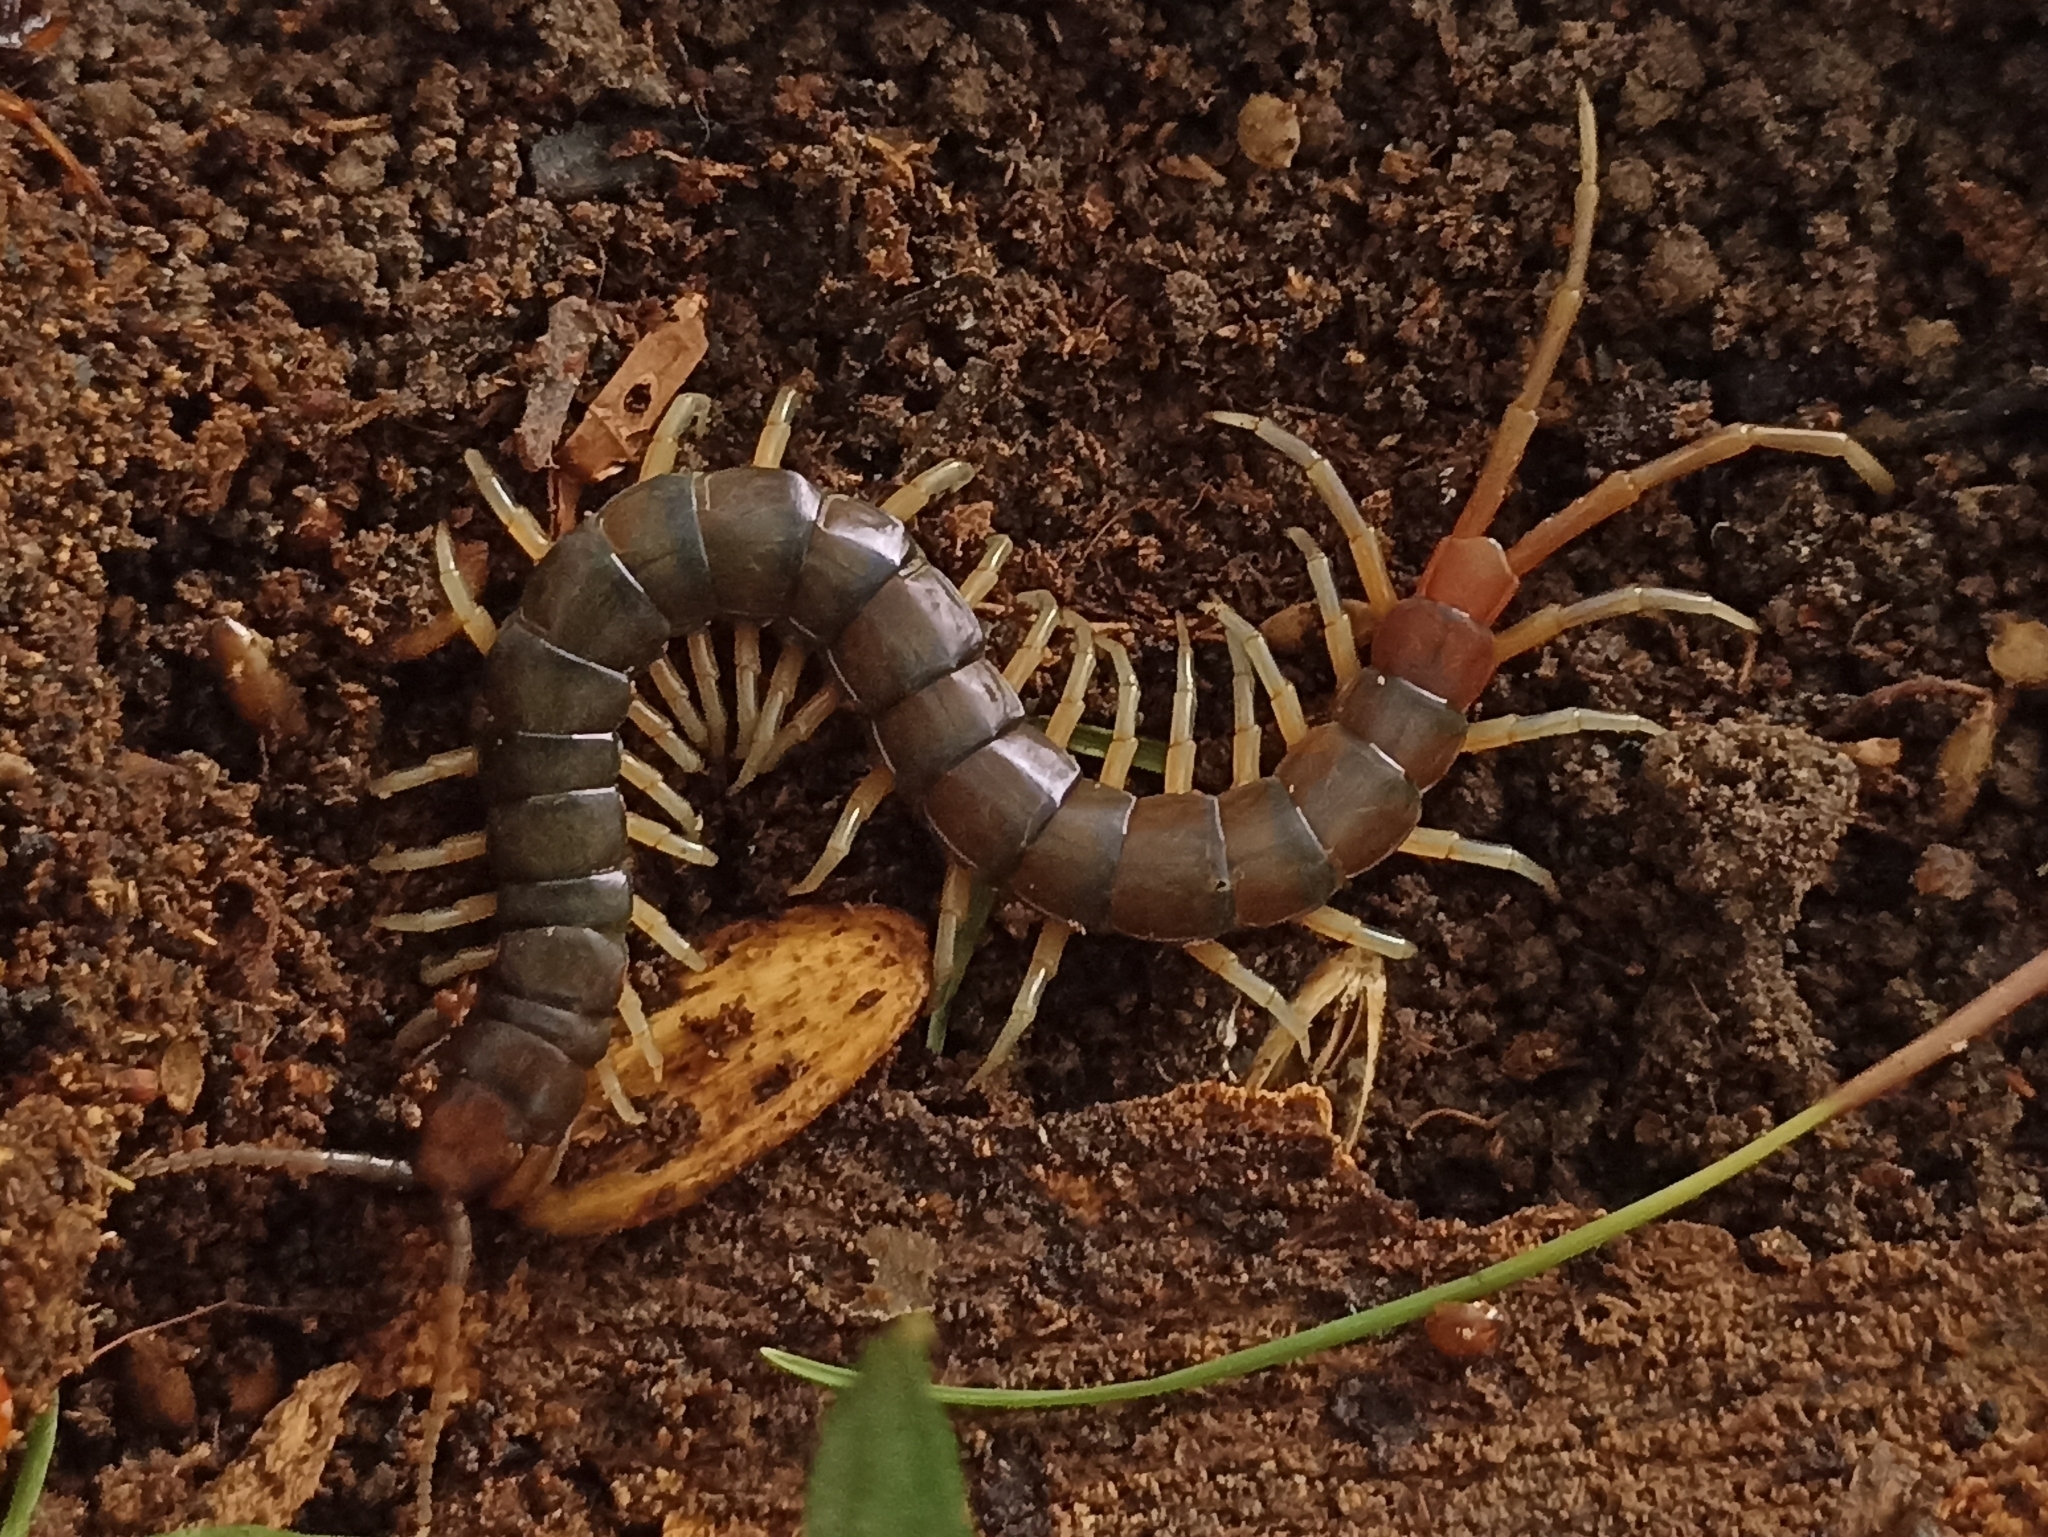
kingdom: Animalia
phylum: Arthropoda
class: Chilopoda
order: Scolopendromorpha
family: Scolopendridae
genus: Rhysida
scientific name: Rhysida longipes
